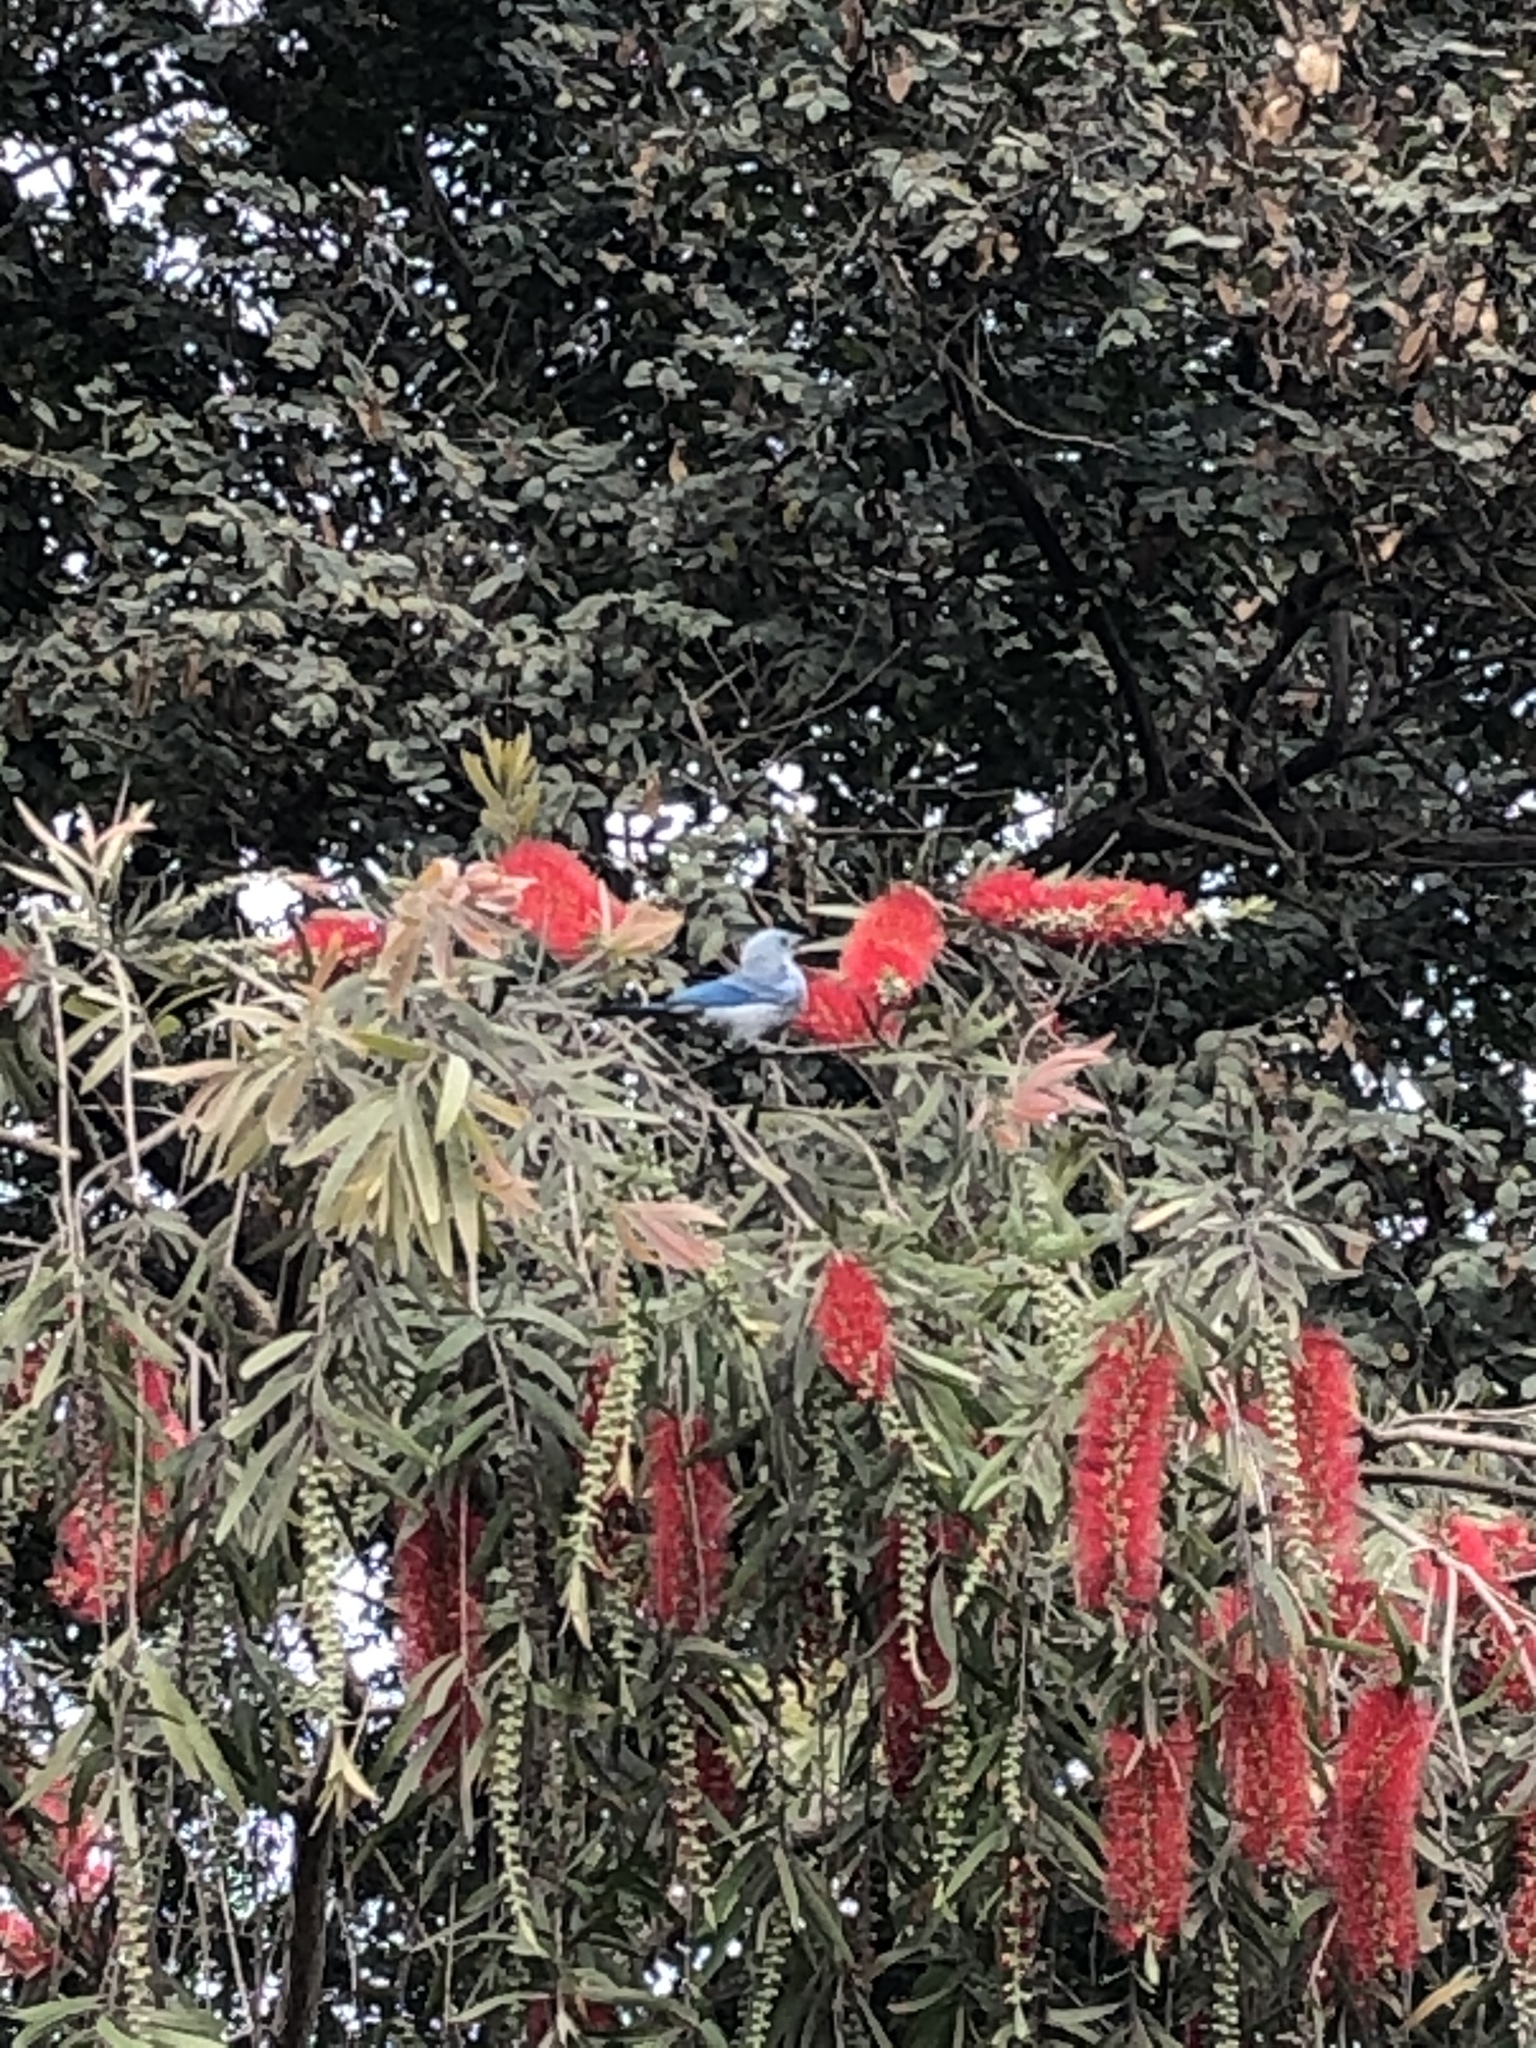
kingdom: Animalia
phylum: Chordata
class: Aves
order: Passeriformes
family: Thraupidae
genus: Thraupis
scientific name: Thraupis episcopus
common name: Blue-grey tanager
